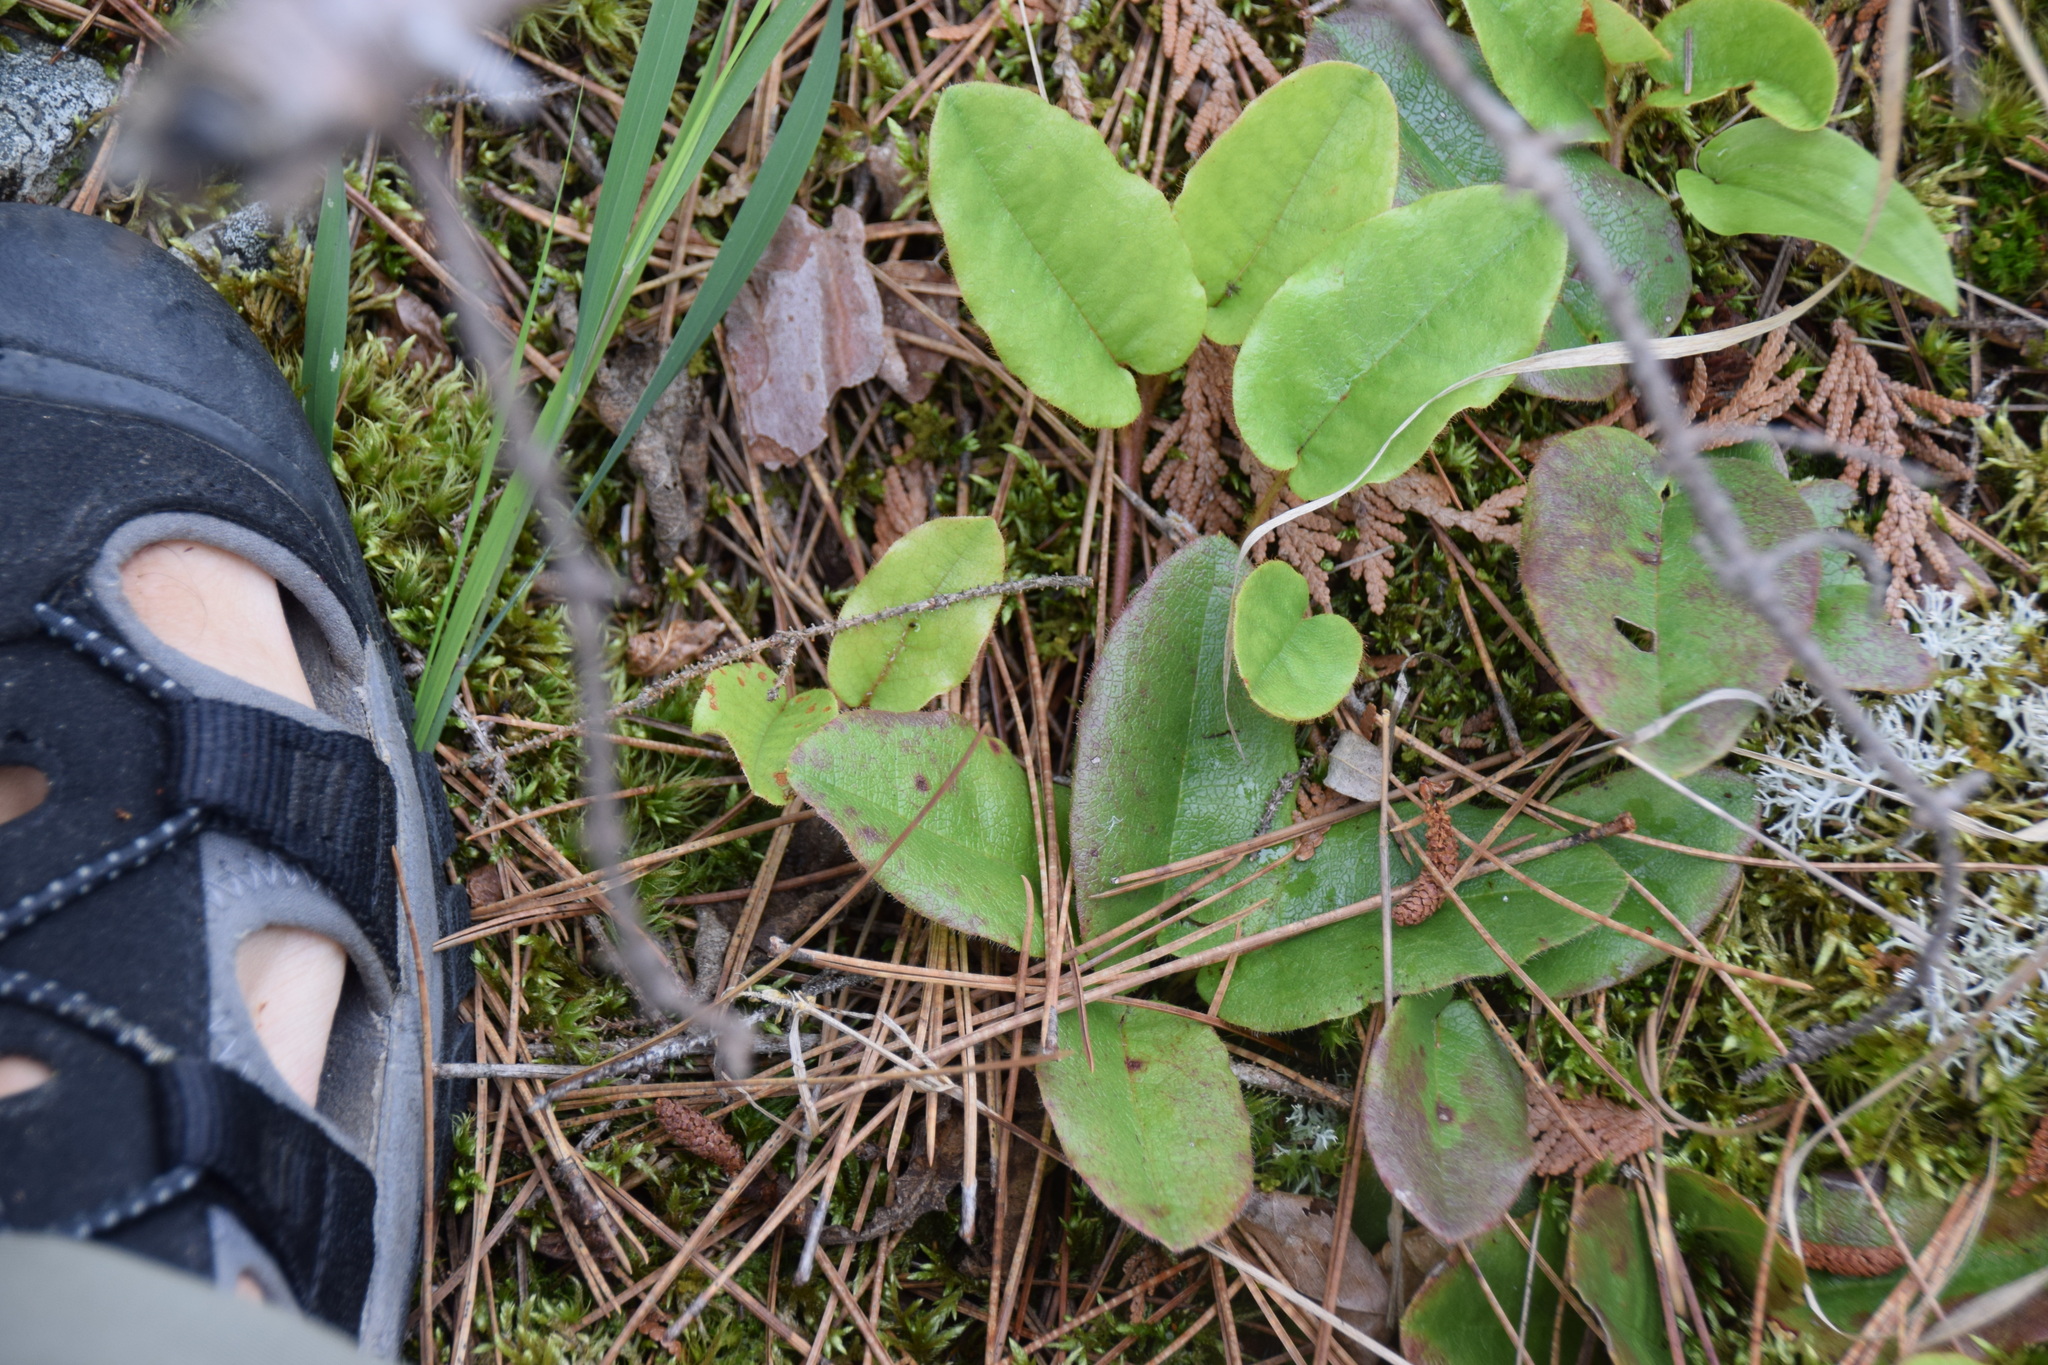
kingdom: Plantae
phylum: Tracheophyta
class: Magnoliopsida
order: Ericales
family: Ericaceae
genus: Epigaea
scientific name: Epigaea repens
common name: Gravelroot
